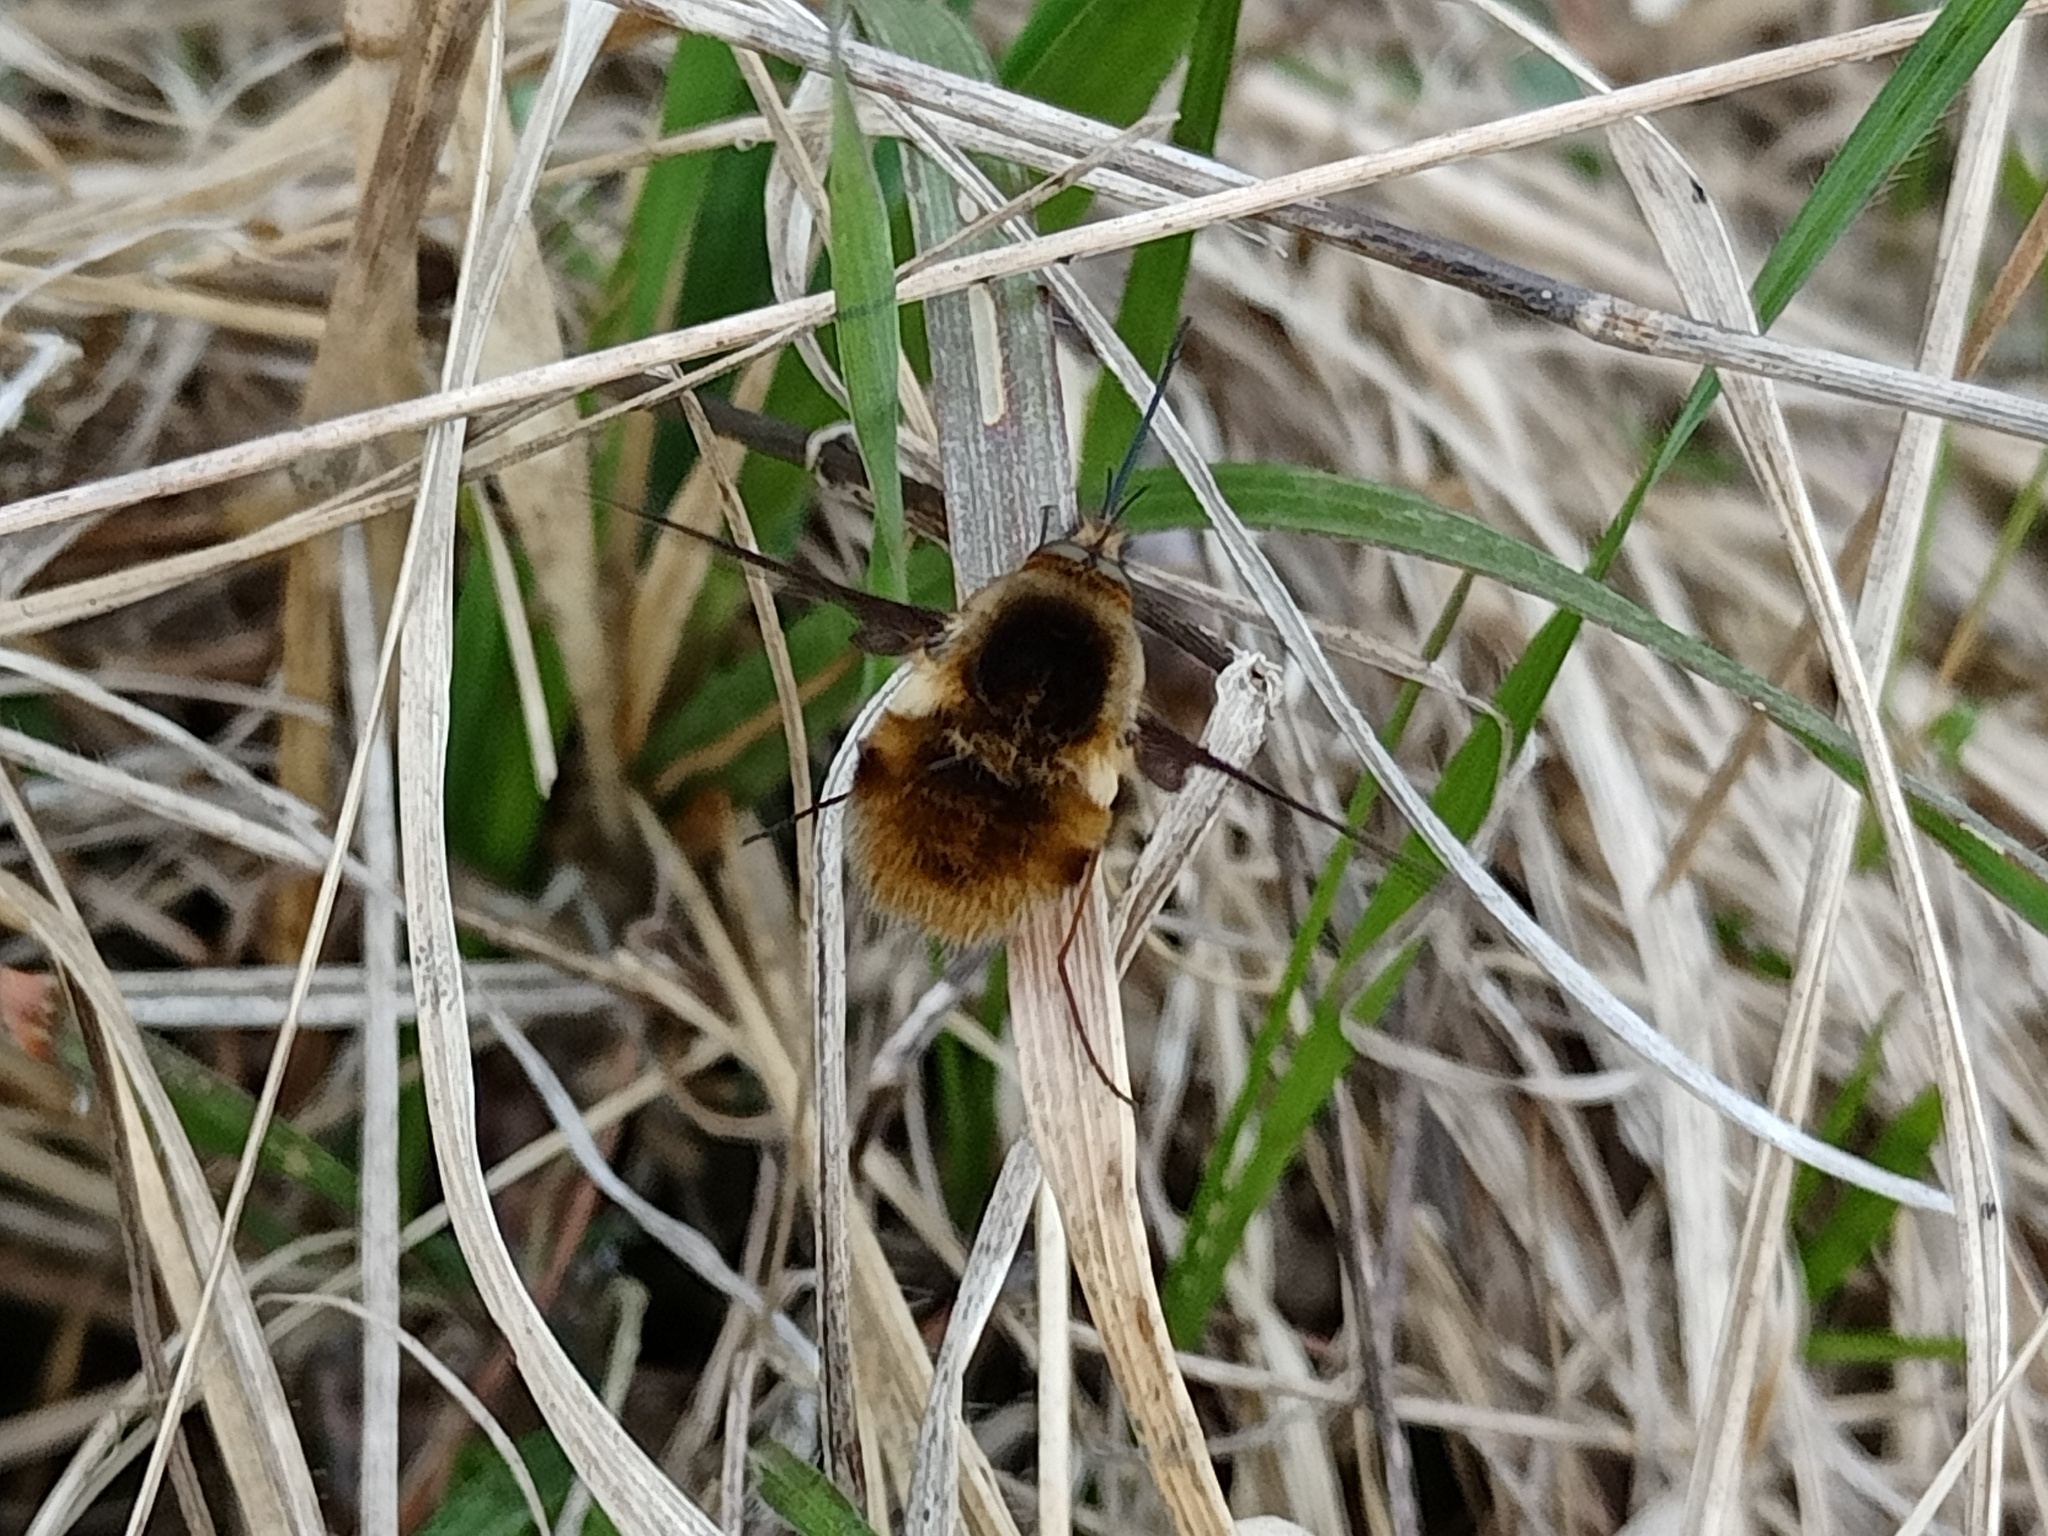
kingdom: Animalia
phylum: Arthropoda
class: Insecta
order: Diptera
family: Bombyliidae
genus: Bombylius
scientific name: Bombylius major
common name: Bee fly
